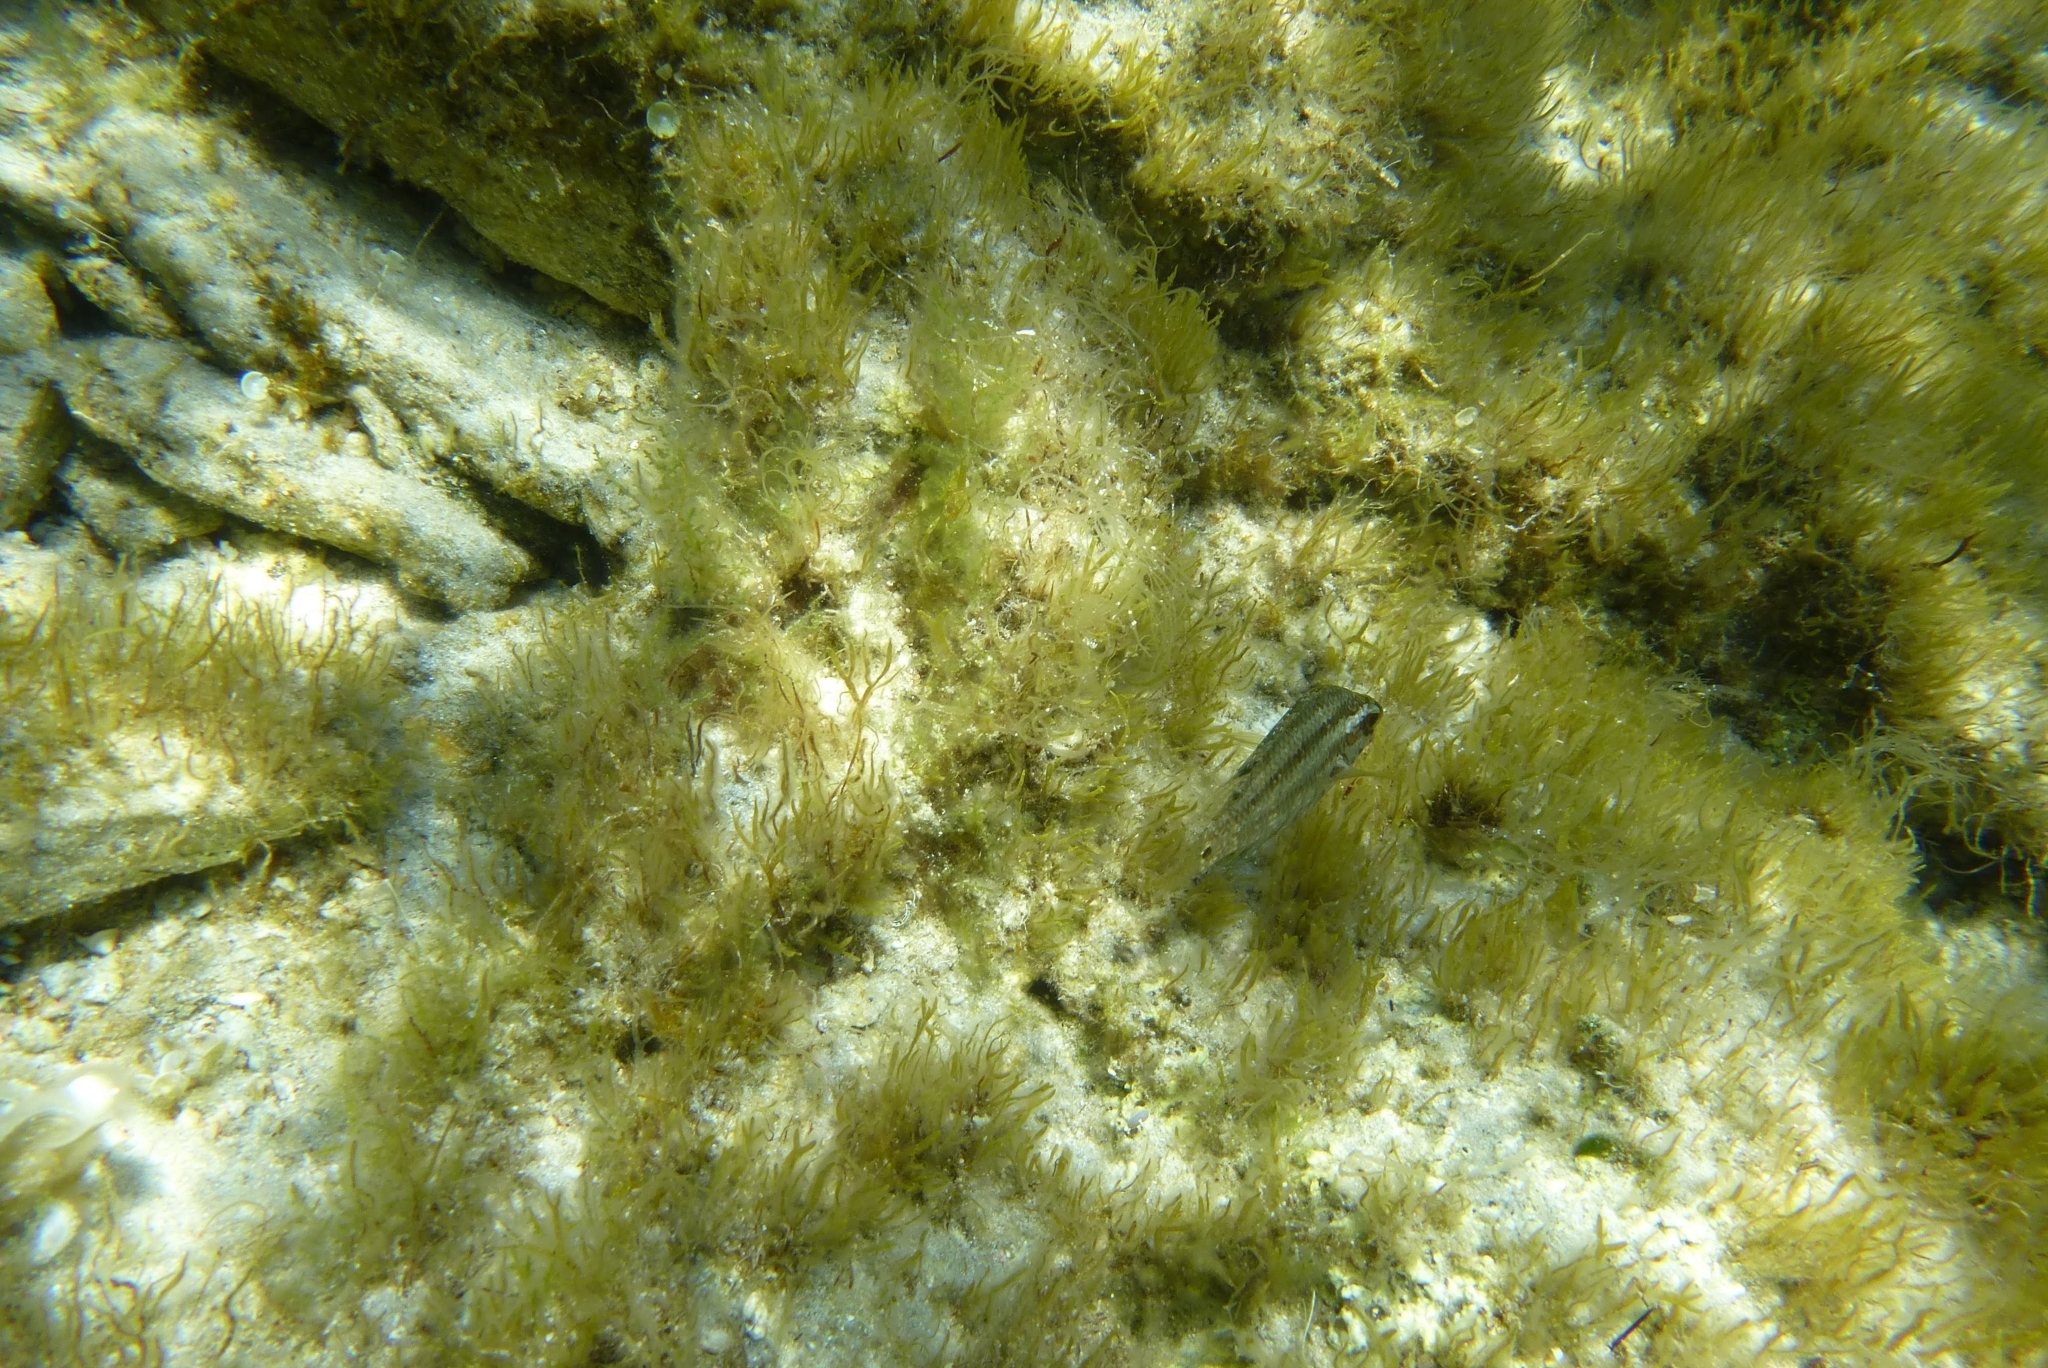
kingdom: Animalia
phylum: Chordata
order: Perciformes
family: Labridae
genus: Symphodus
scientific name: Symphodus roissali
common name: Five-spotted wrasse
